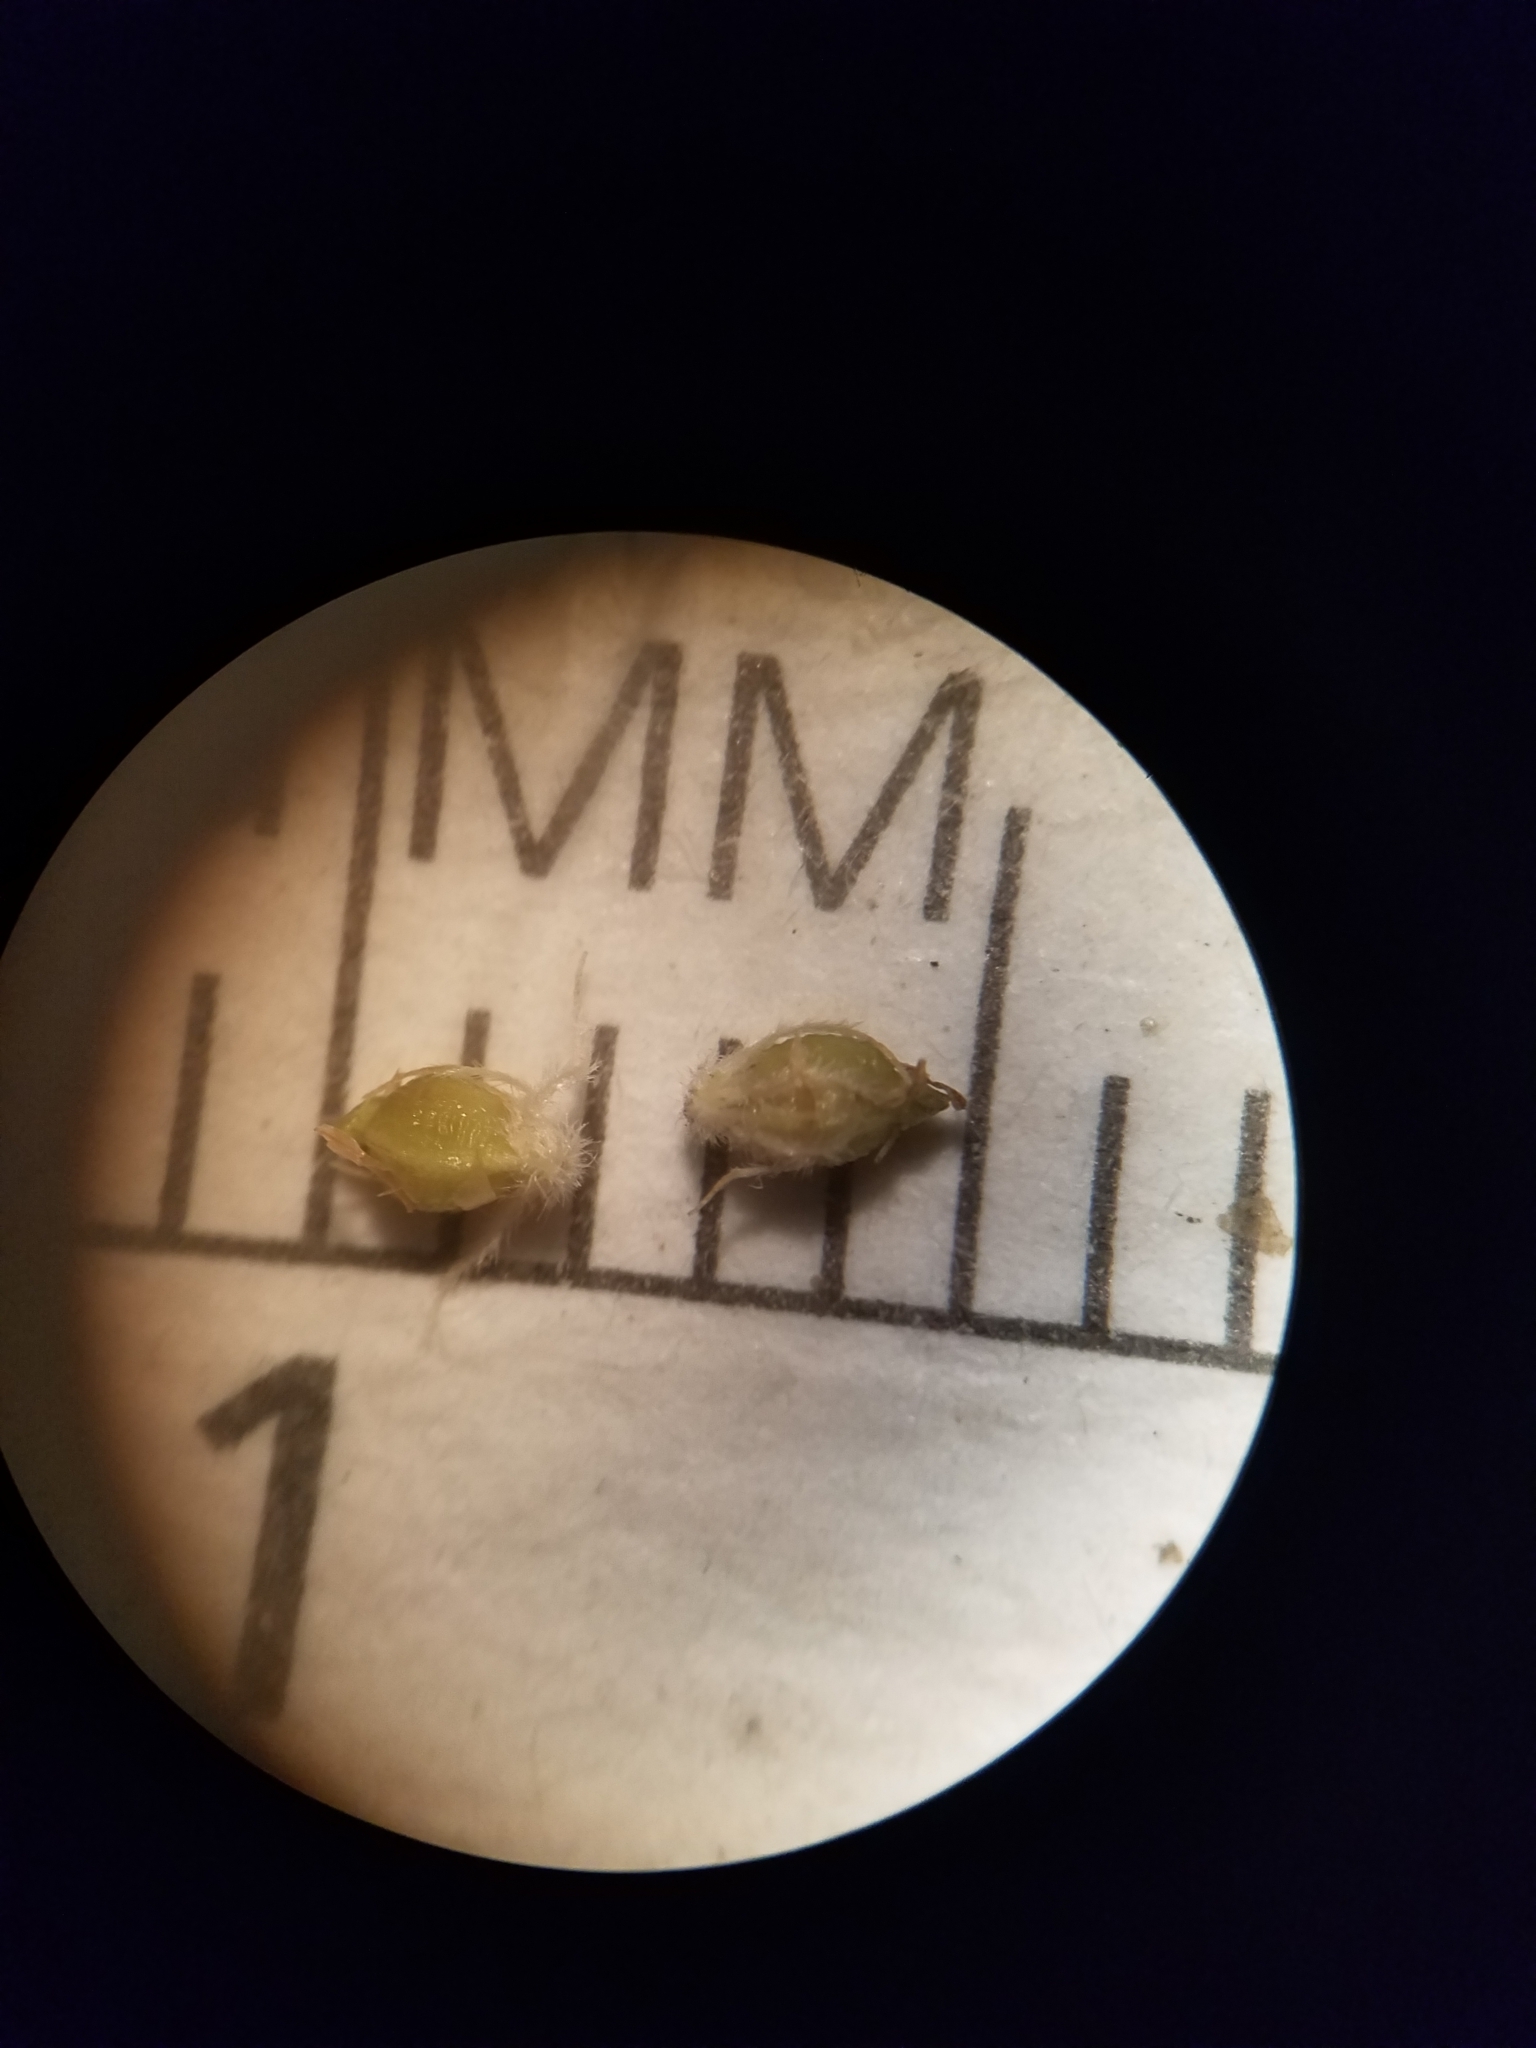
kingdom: Plantae
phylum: Tracheophyta
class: Liliopsida
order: Poales
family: Cyperaceae
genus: Rhynchospora
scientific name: Rhynchospora plumosa
